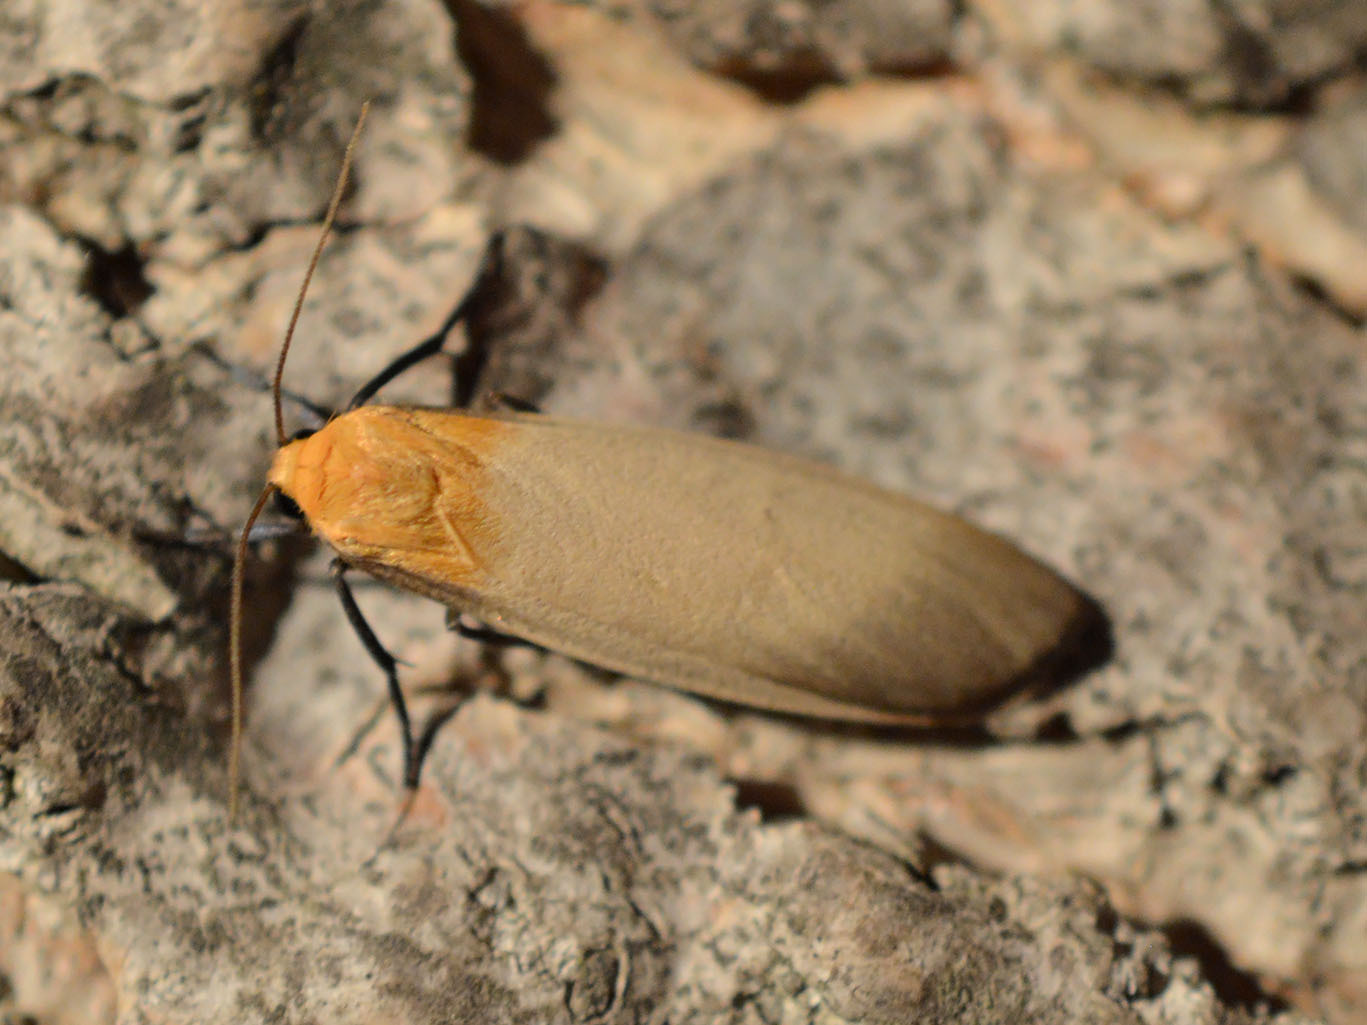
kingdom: Animalia
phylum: Arthropoda
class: Insecta
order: Lepidoptera
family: Erebidae
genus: Lithosia
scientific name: Lithosia quadra
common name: Four-spotted footman
